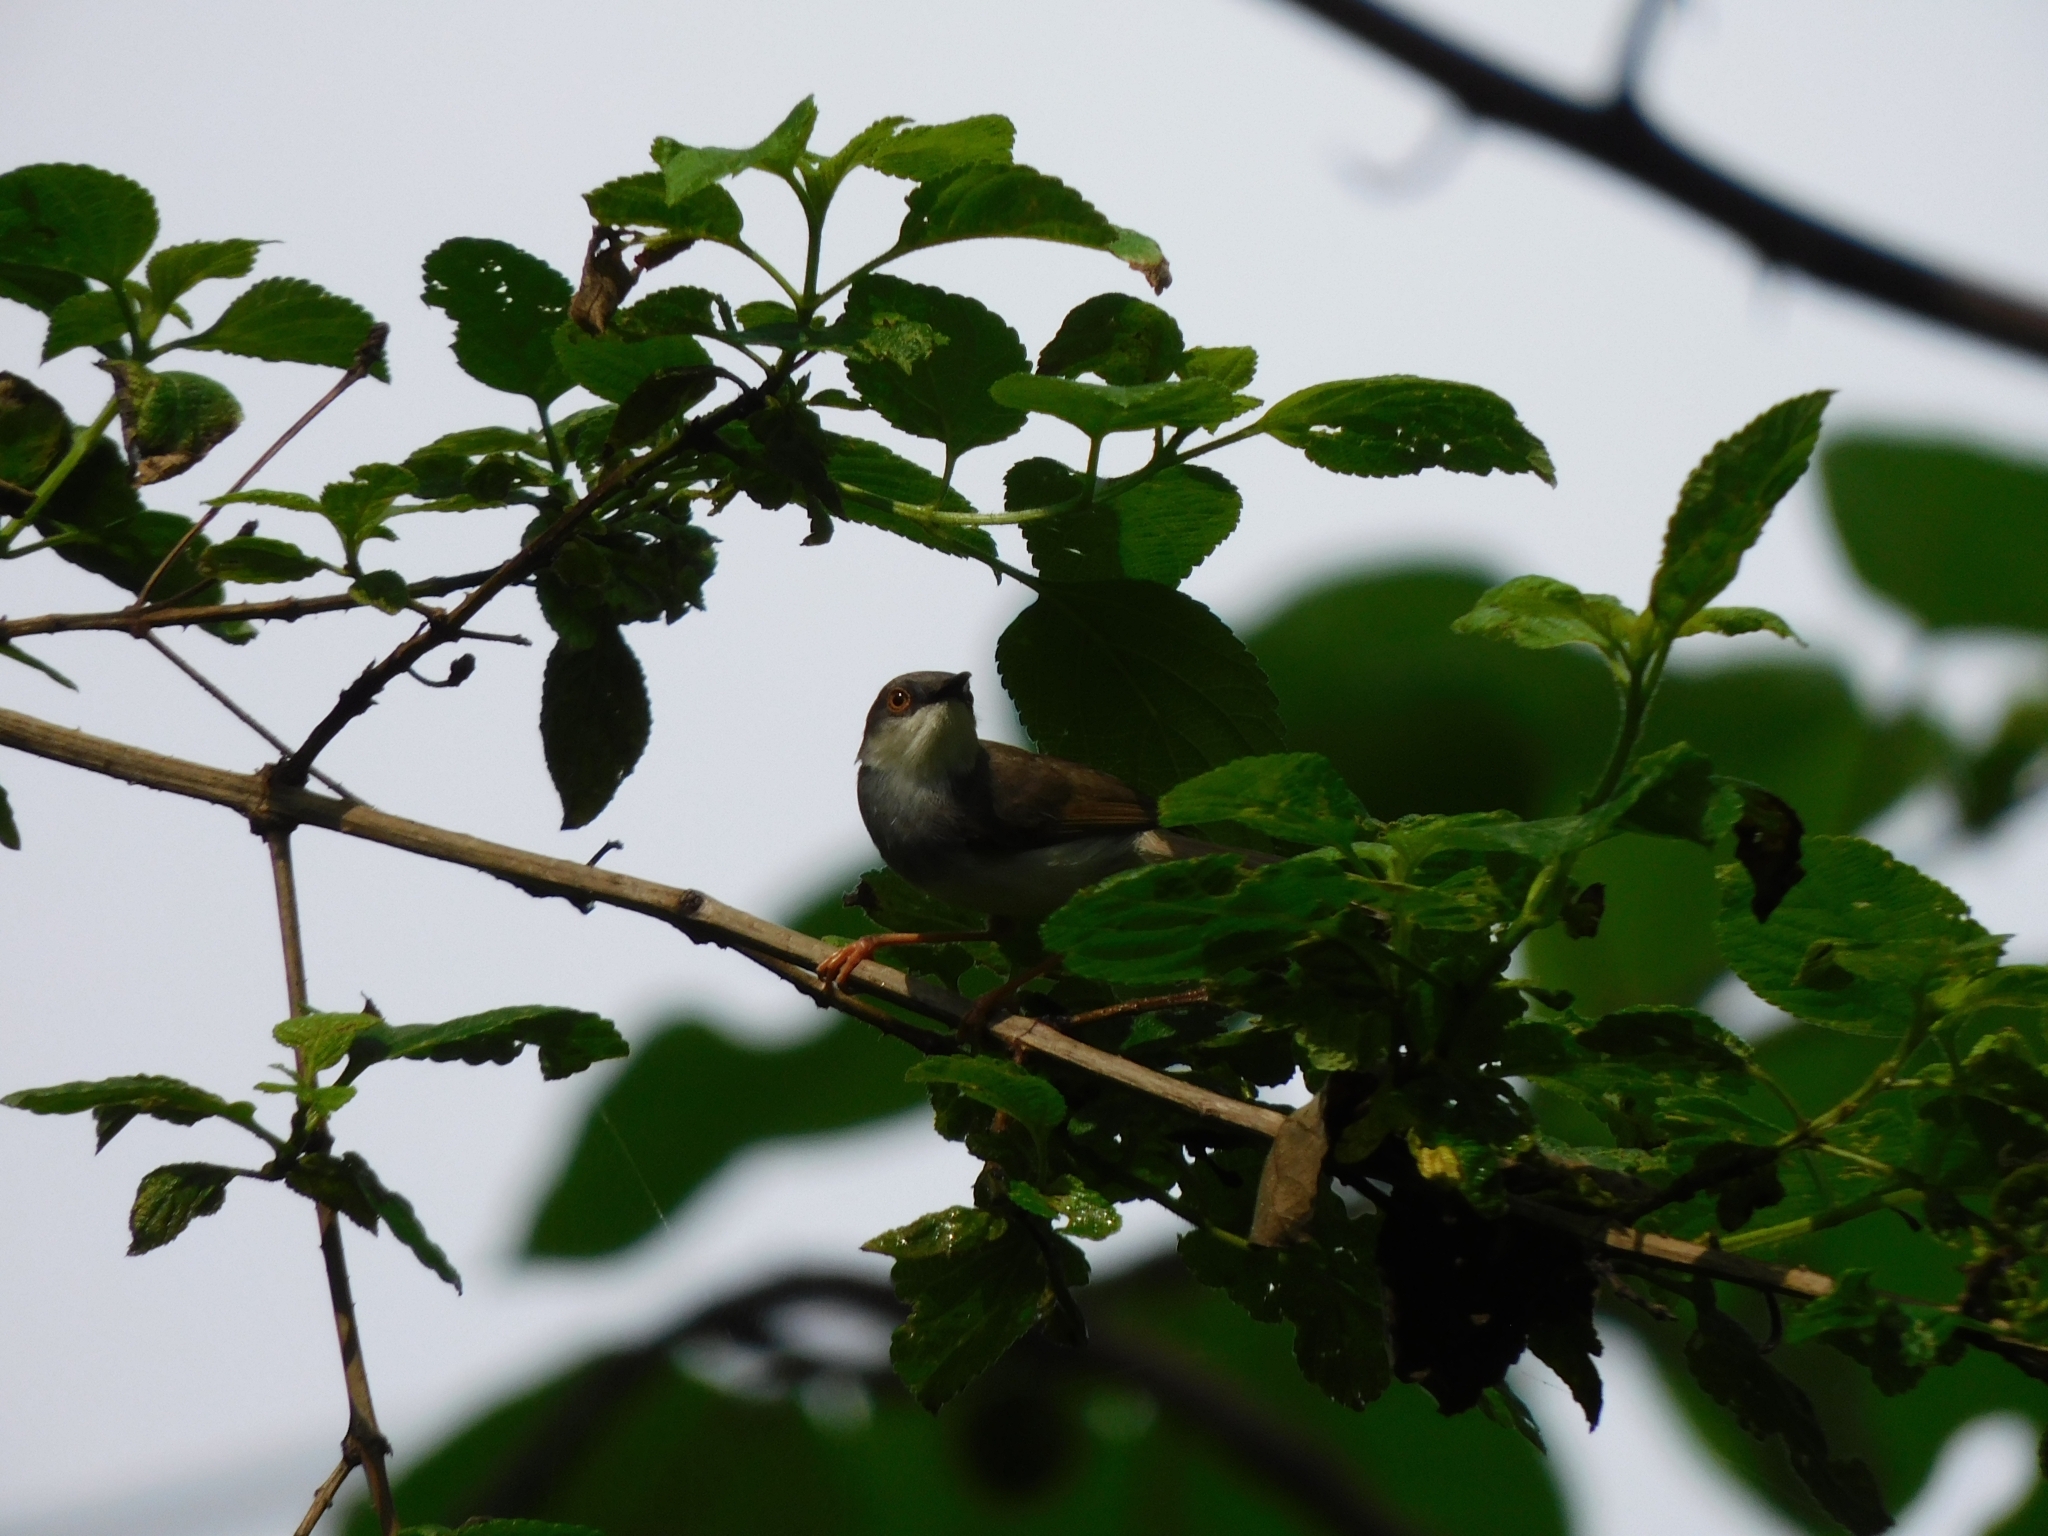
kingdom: Animalia
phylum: Chordata
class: Aves
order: Passeriformes
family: Cisticolidae
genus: Prinia
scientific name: Prinia hodgsonii
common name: Grey-breasted prinia
